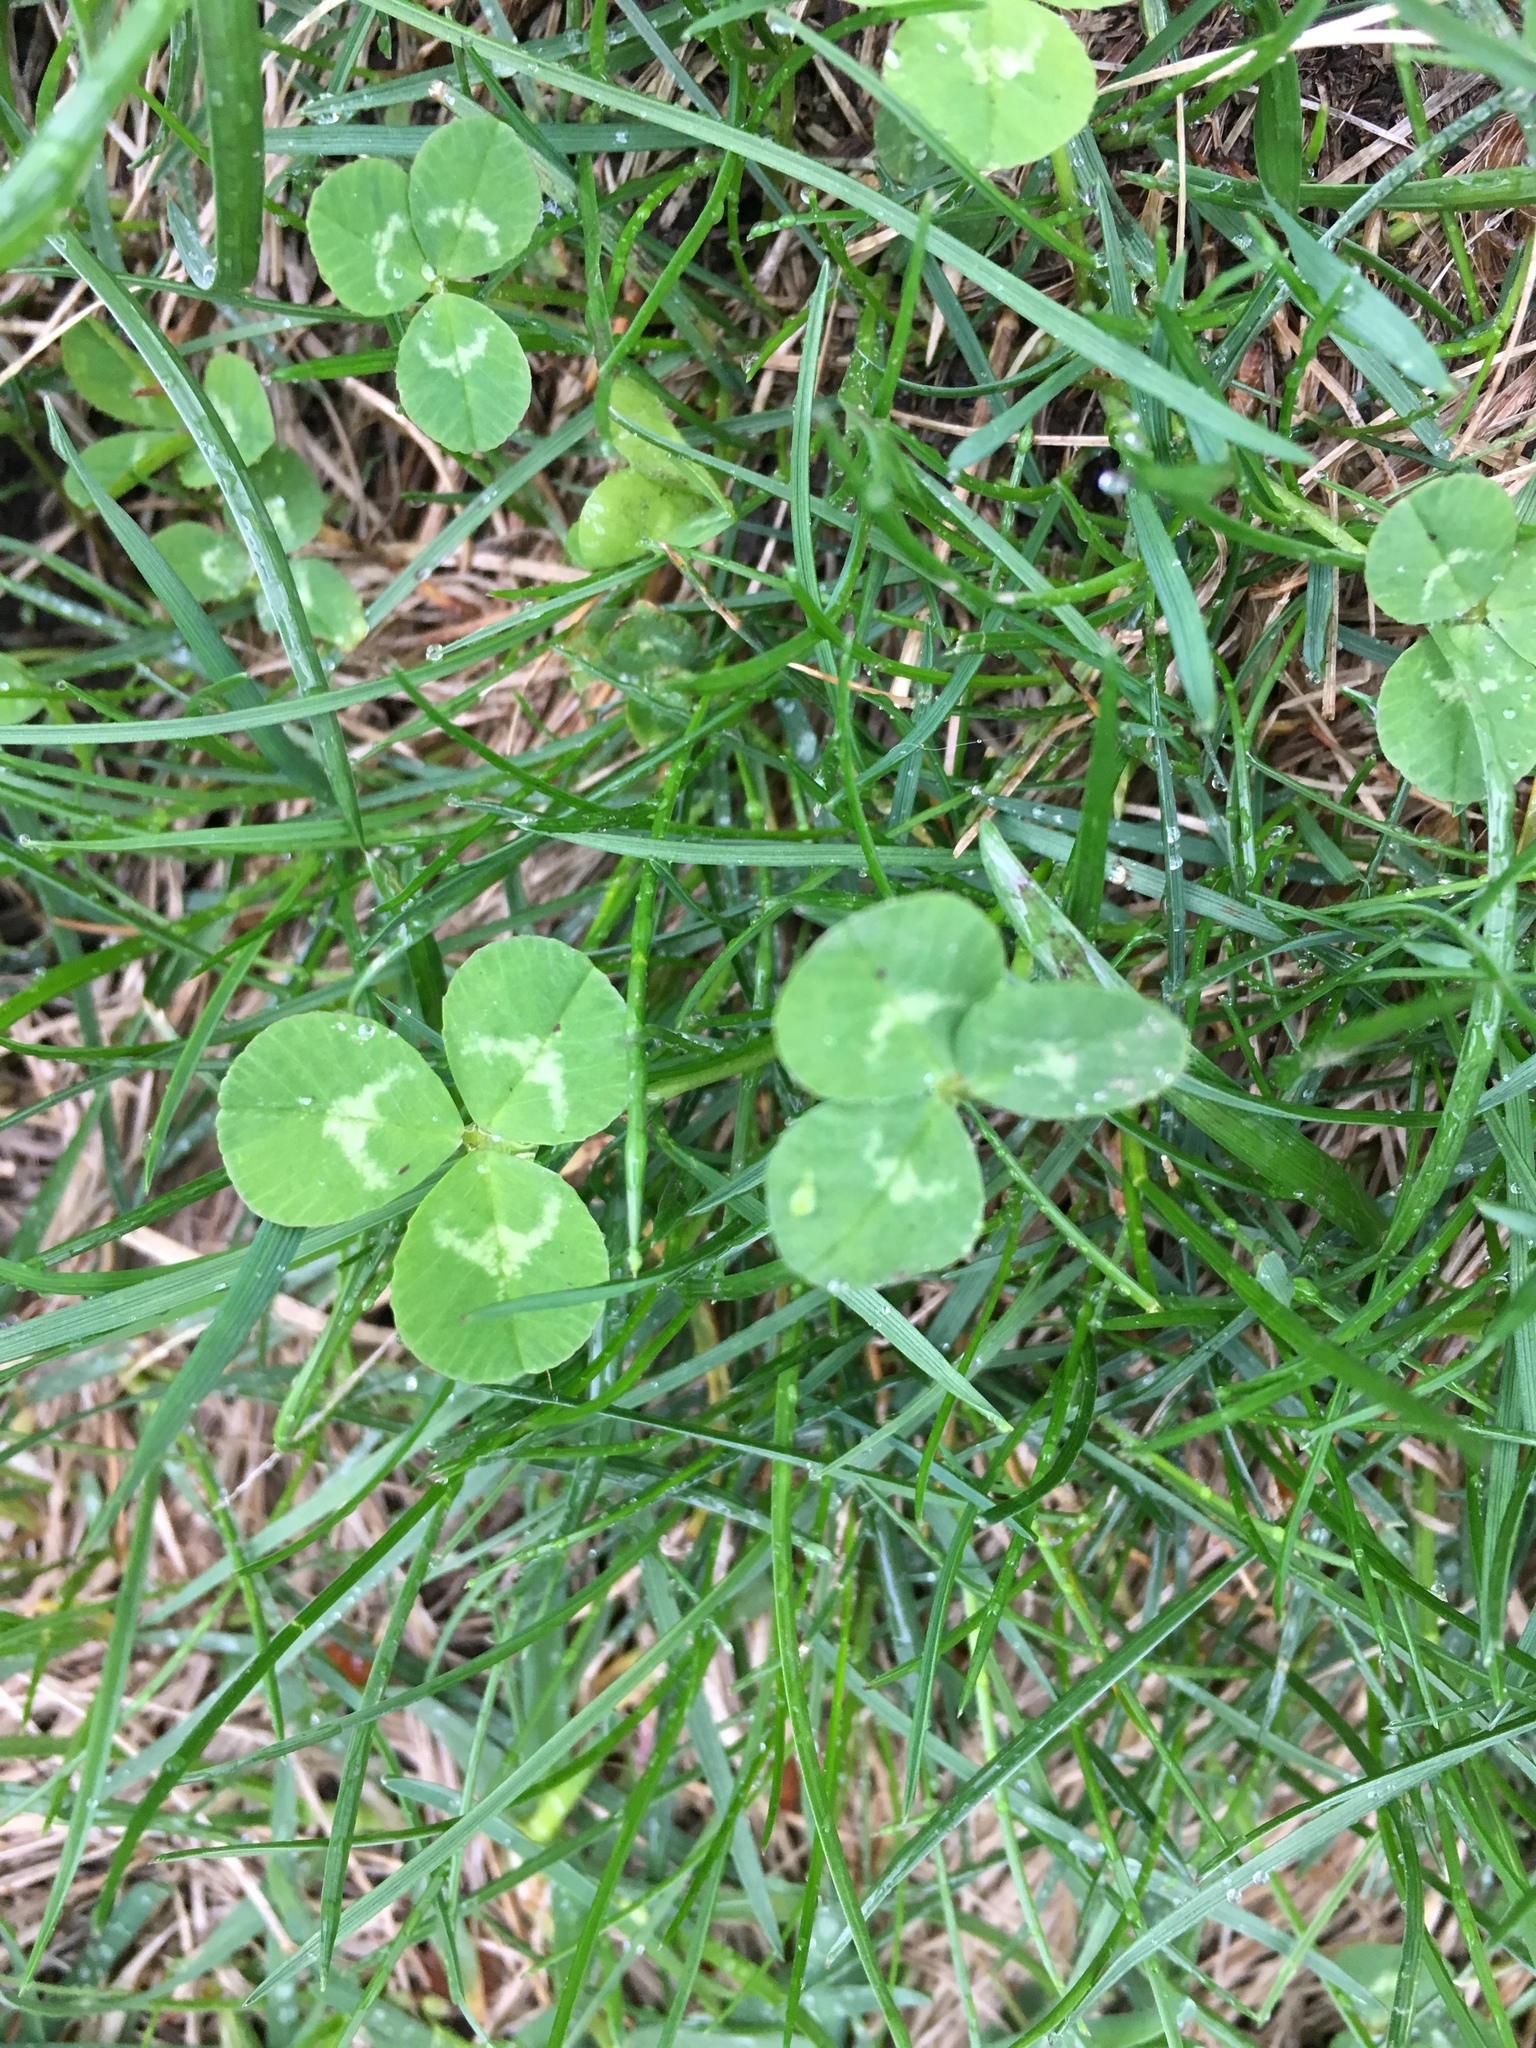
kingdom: Plantae
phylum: Tracheophyta
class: Magnoliopsida
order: Fabales
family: Fabaceae
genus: Trifolium
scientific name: Trifolium repens
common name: White clover
